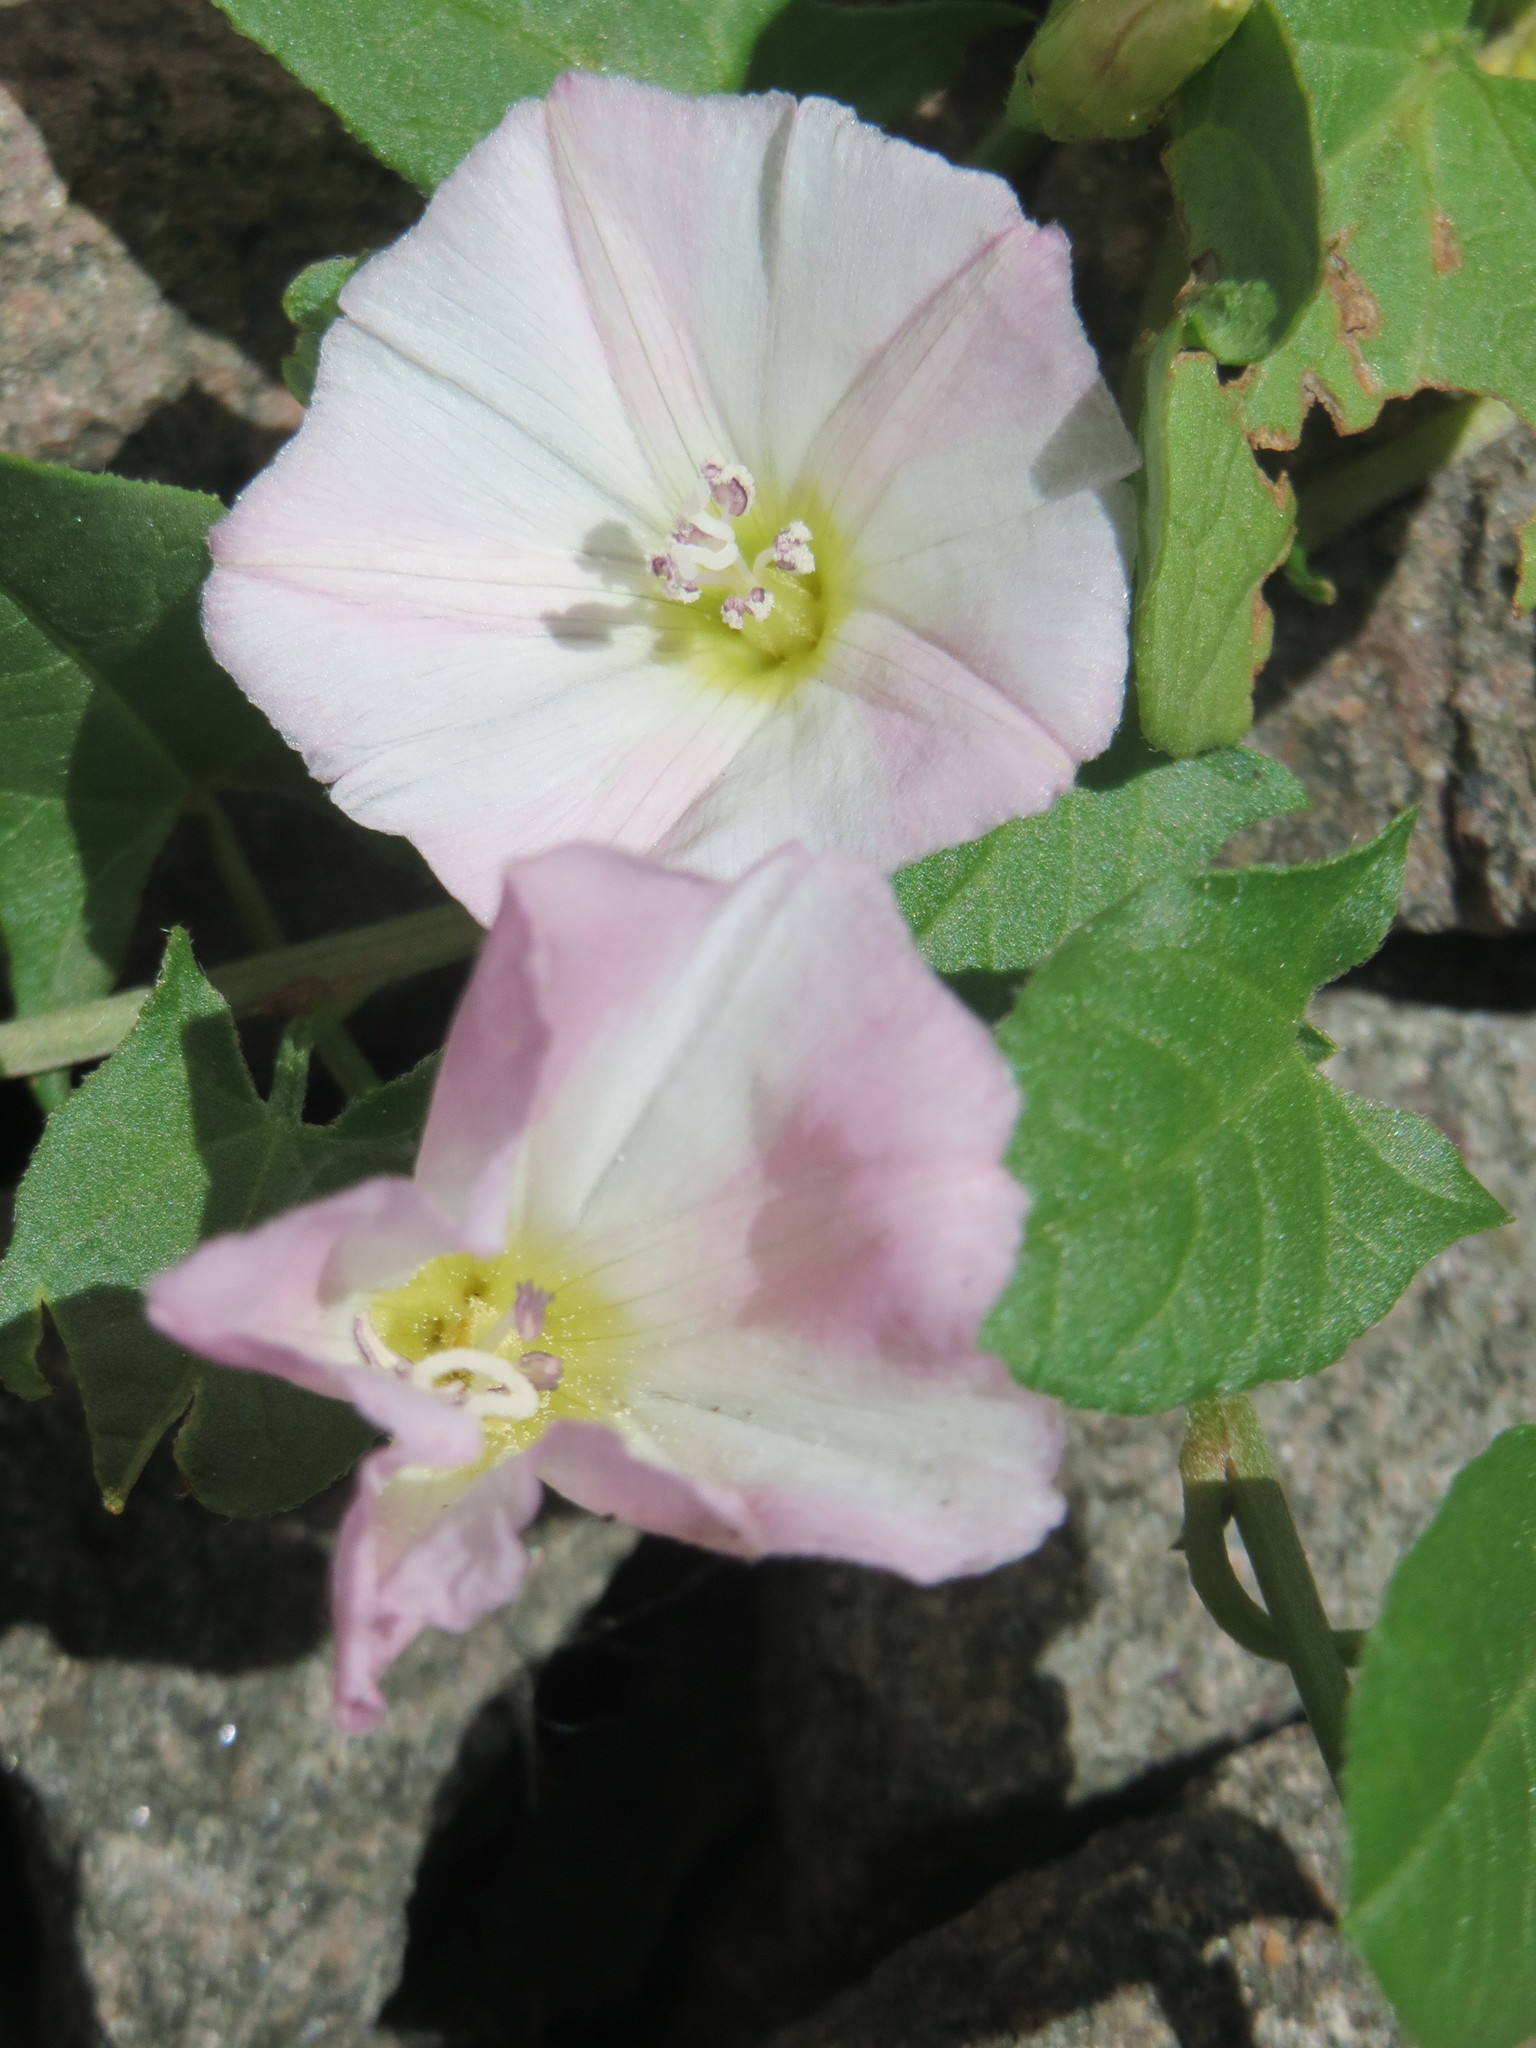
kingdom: Plantae
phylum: Tracheophyta
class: Magnoliopsida
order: Solanales
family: Convolvulaceae
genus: Convolvulus
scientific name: Convolvulus arvensis
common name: Field bindweed
